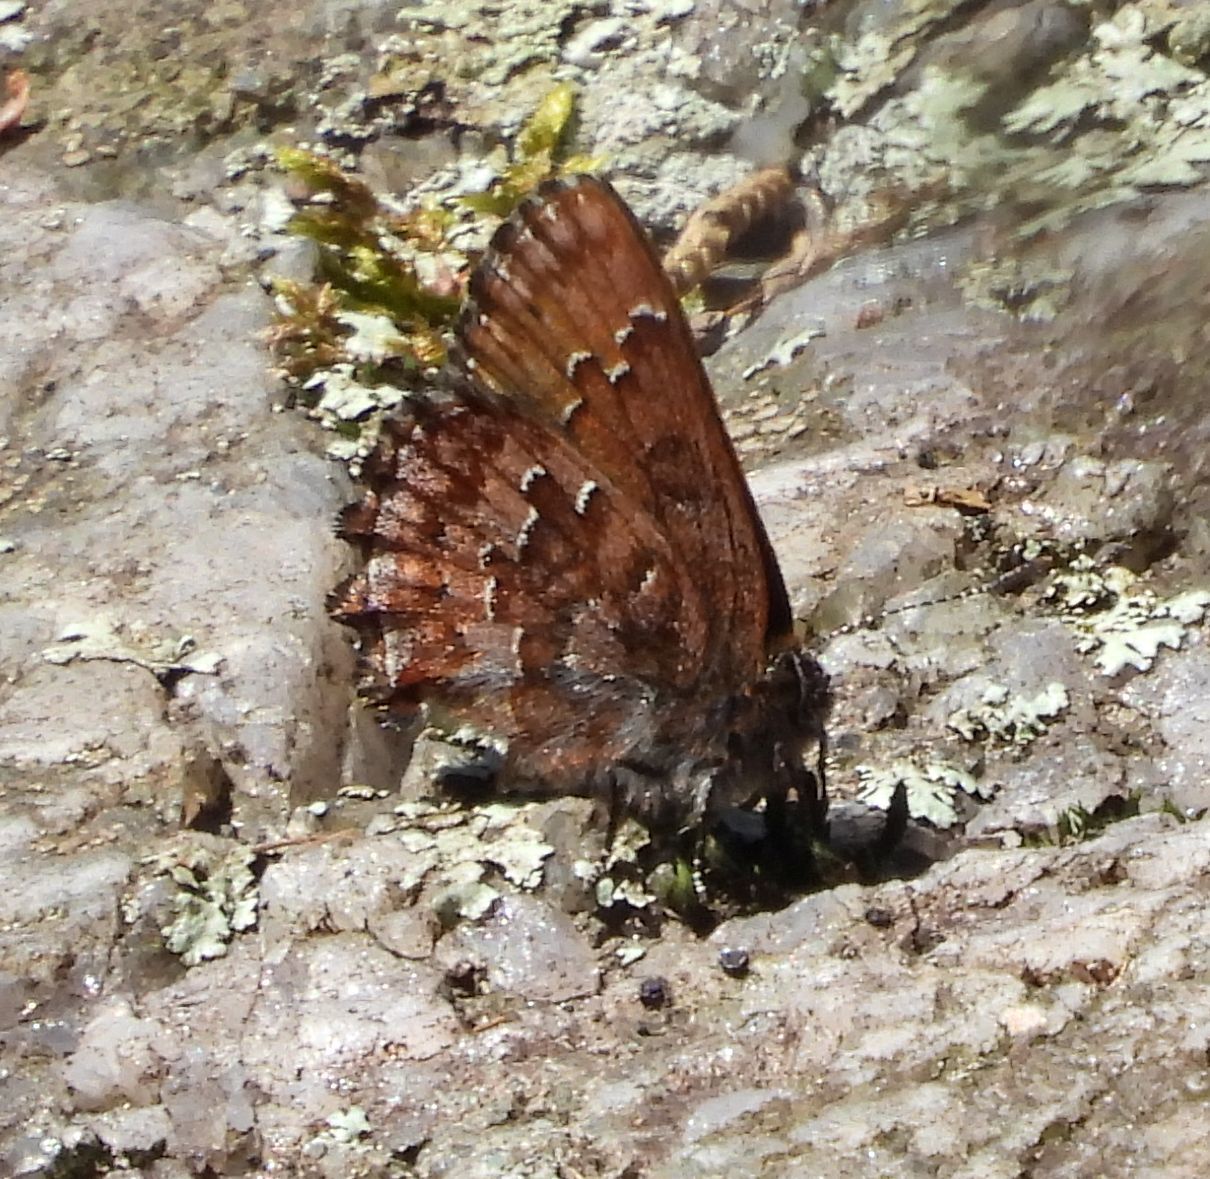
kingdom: Animalia
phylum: Arthropoda
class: Insecta
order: Lepidoptera
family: Lycaenidae
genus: Incisalia
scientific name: Incisalia niphon
